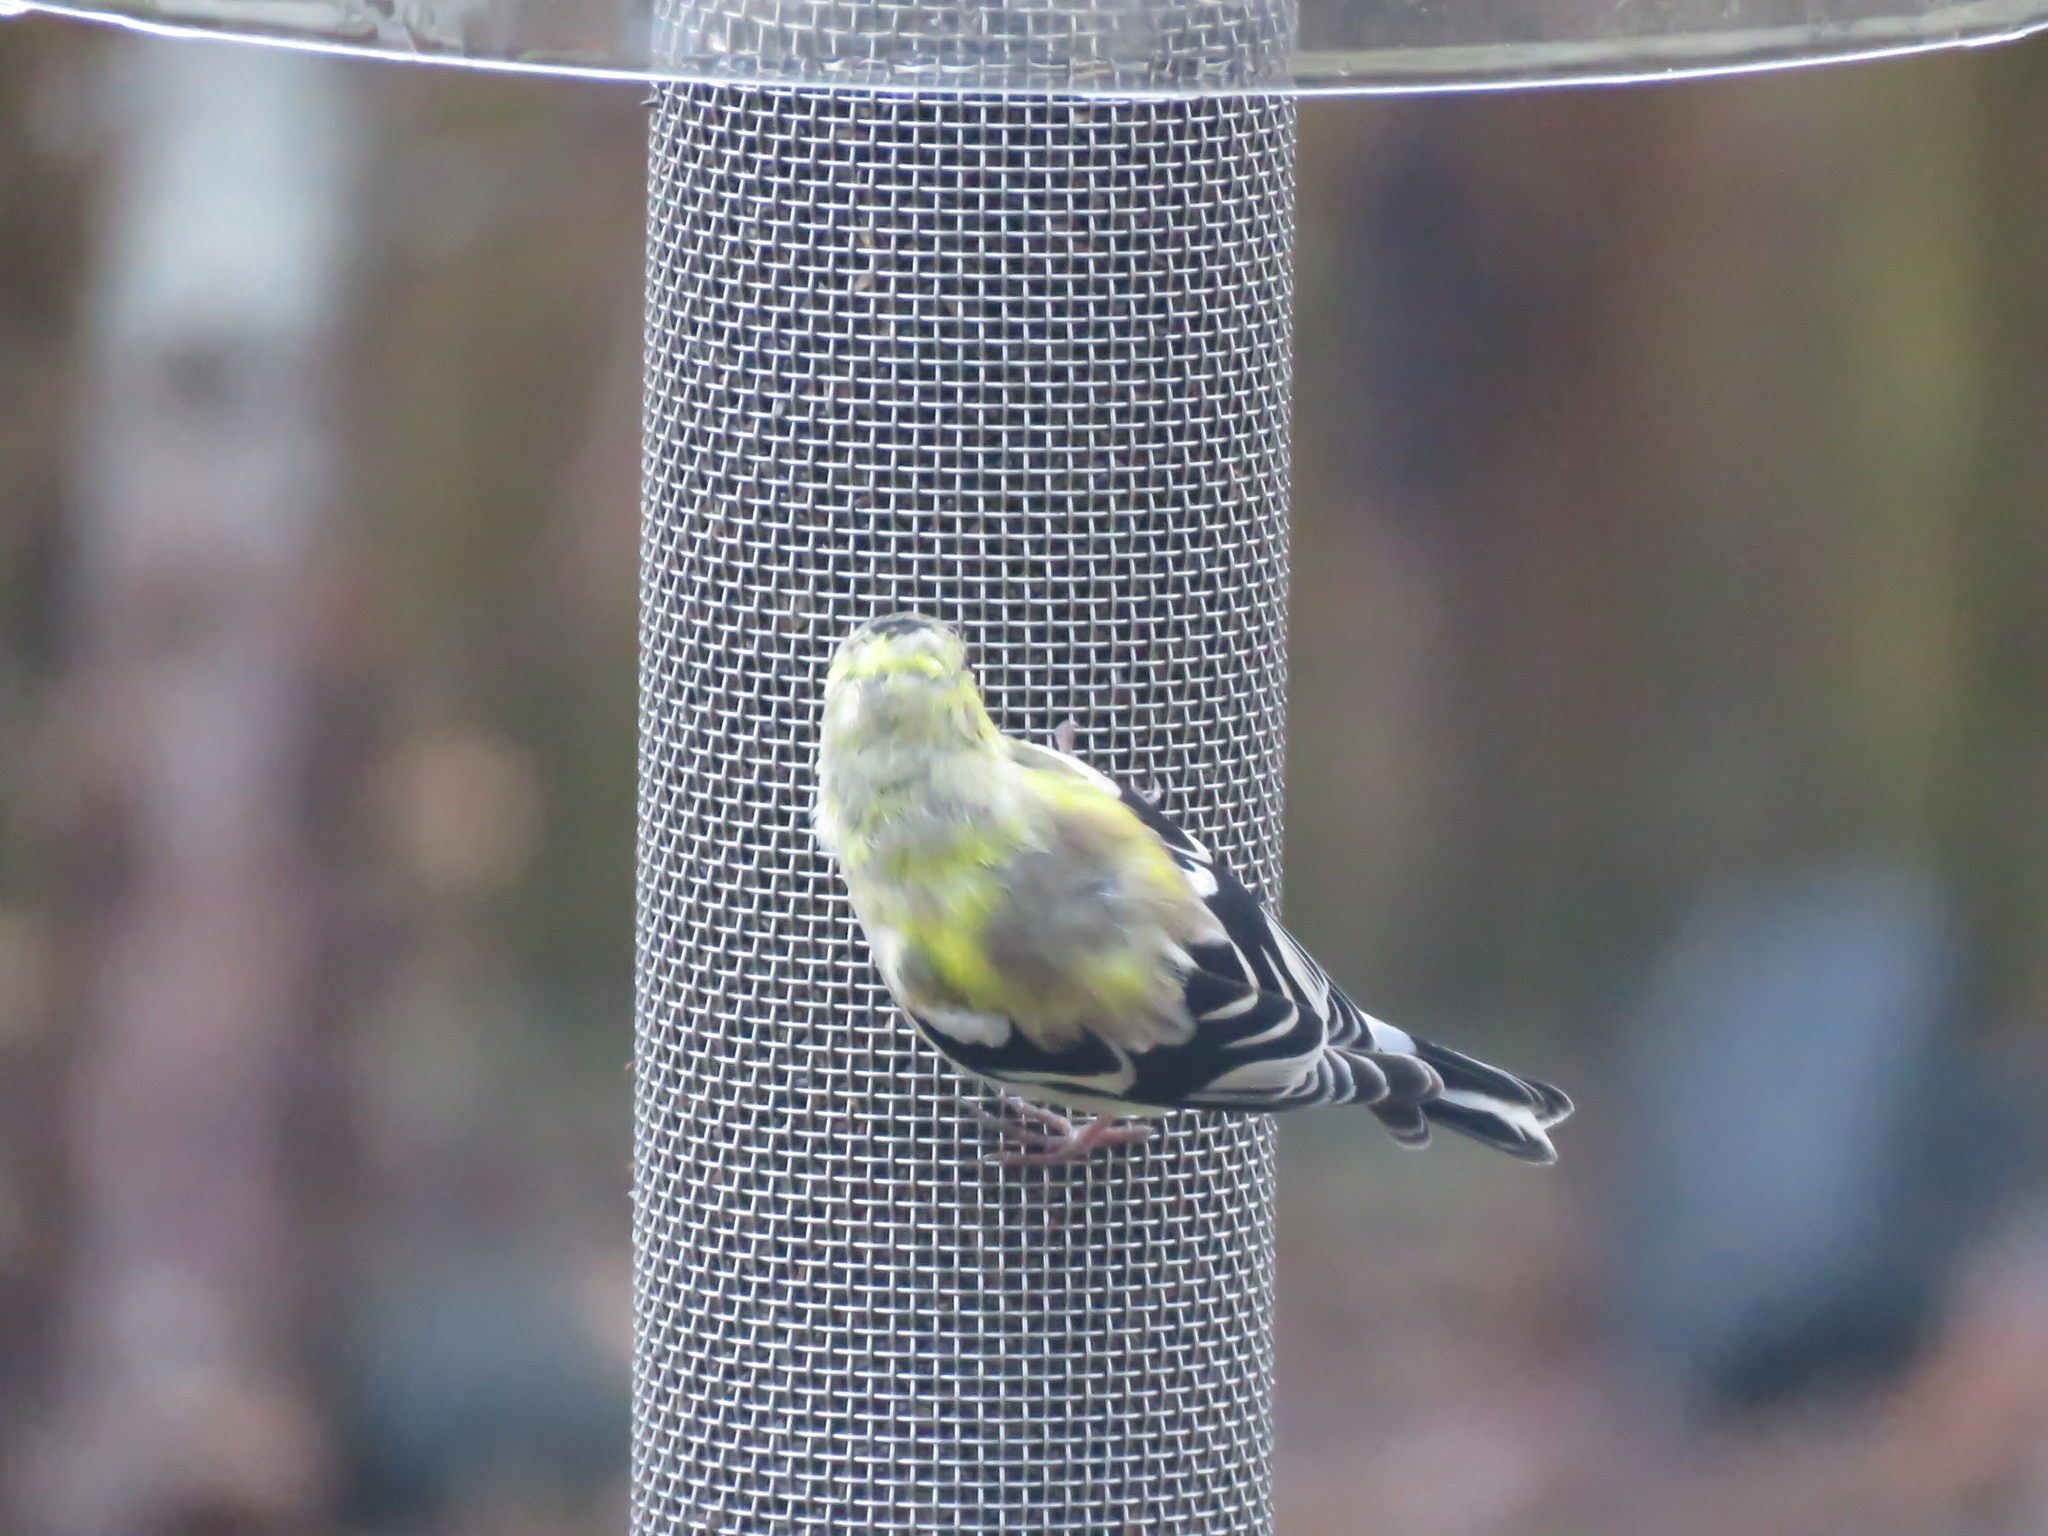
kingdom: Animalia
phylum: Chordata
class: Aves
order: Passeriformes
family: Fringillidae
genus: Spinus
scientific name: Spinus tristis
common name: American goldfinch
